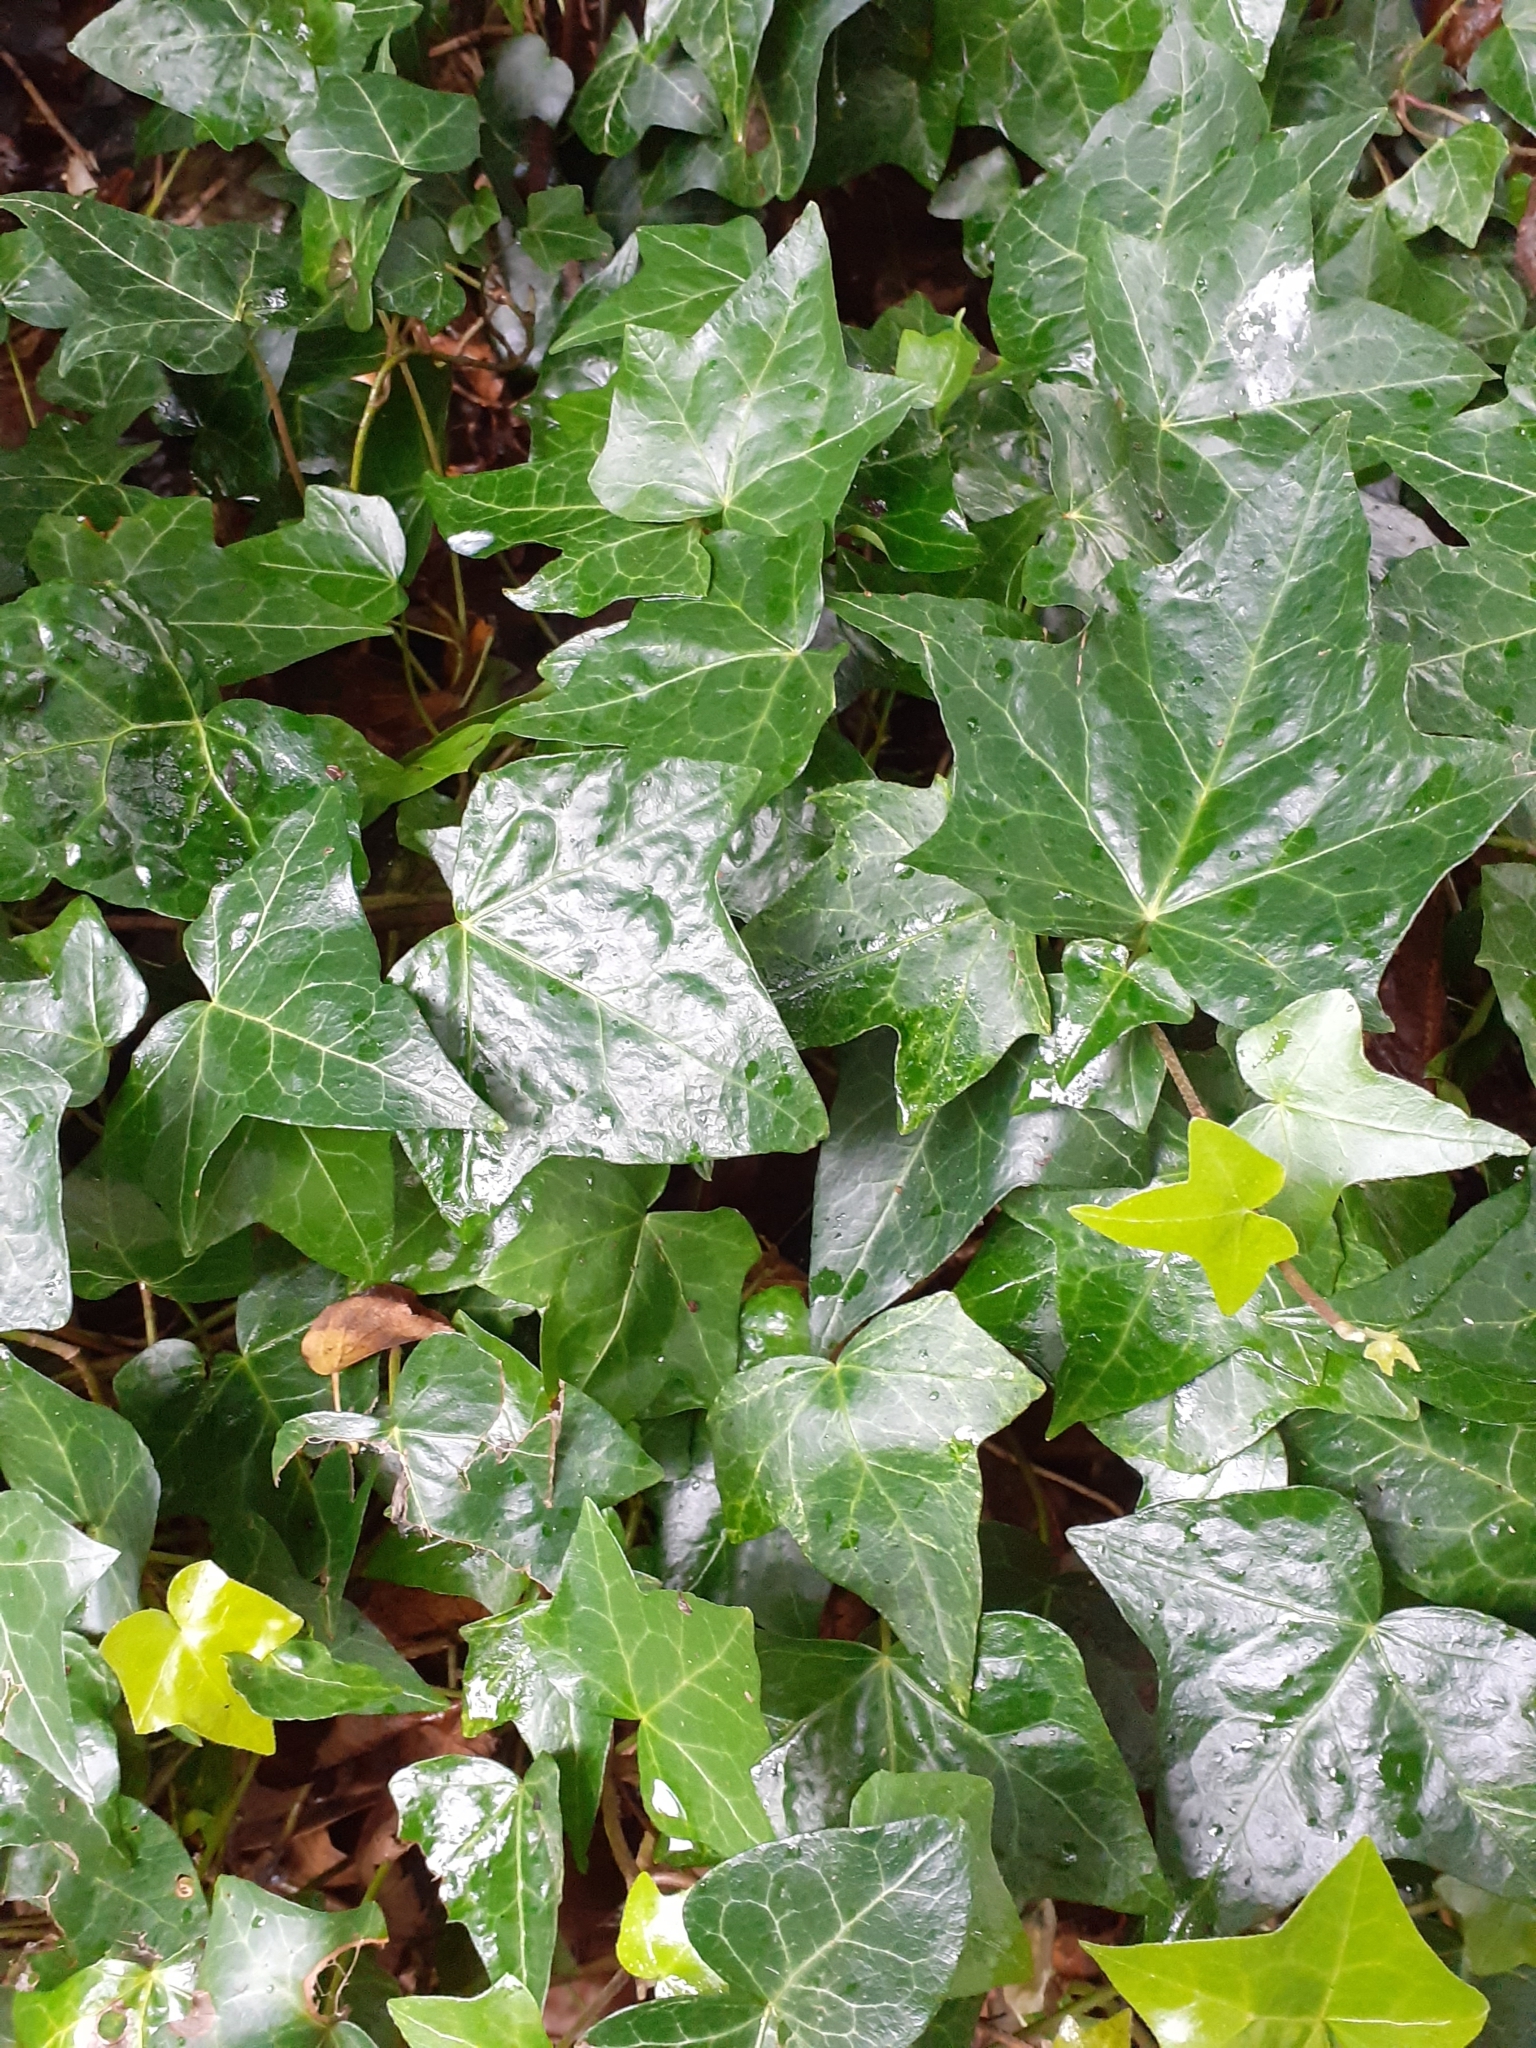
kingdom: Plantae
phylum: Tracheophyta
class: Magnoliopsida
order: Apiales
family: Araliaceae
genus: Hedera
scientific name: Hedera helix
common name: Ivy
